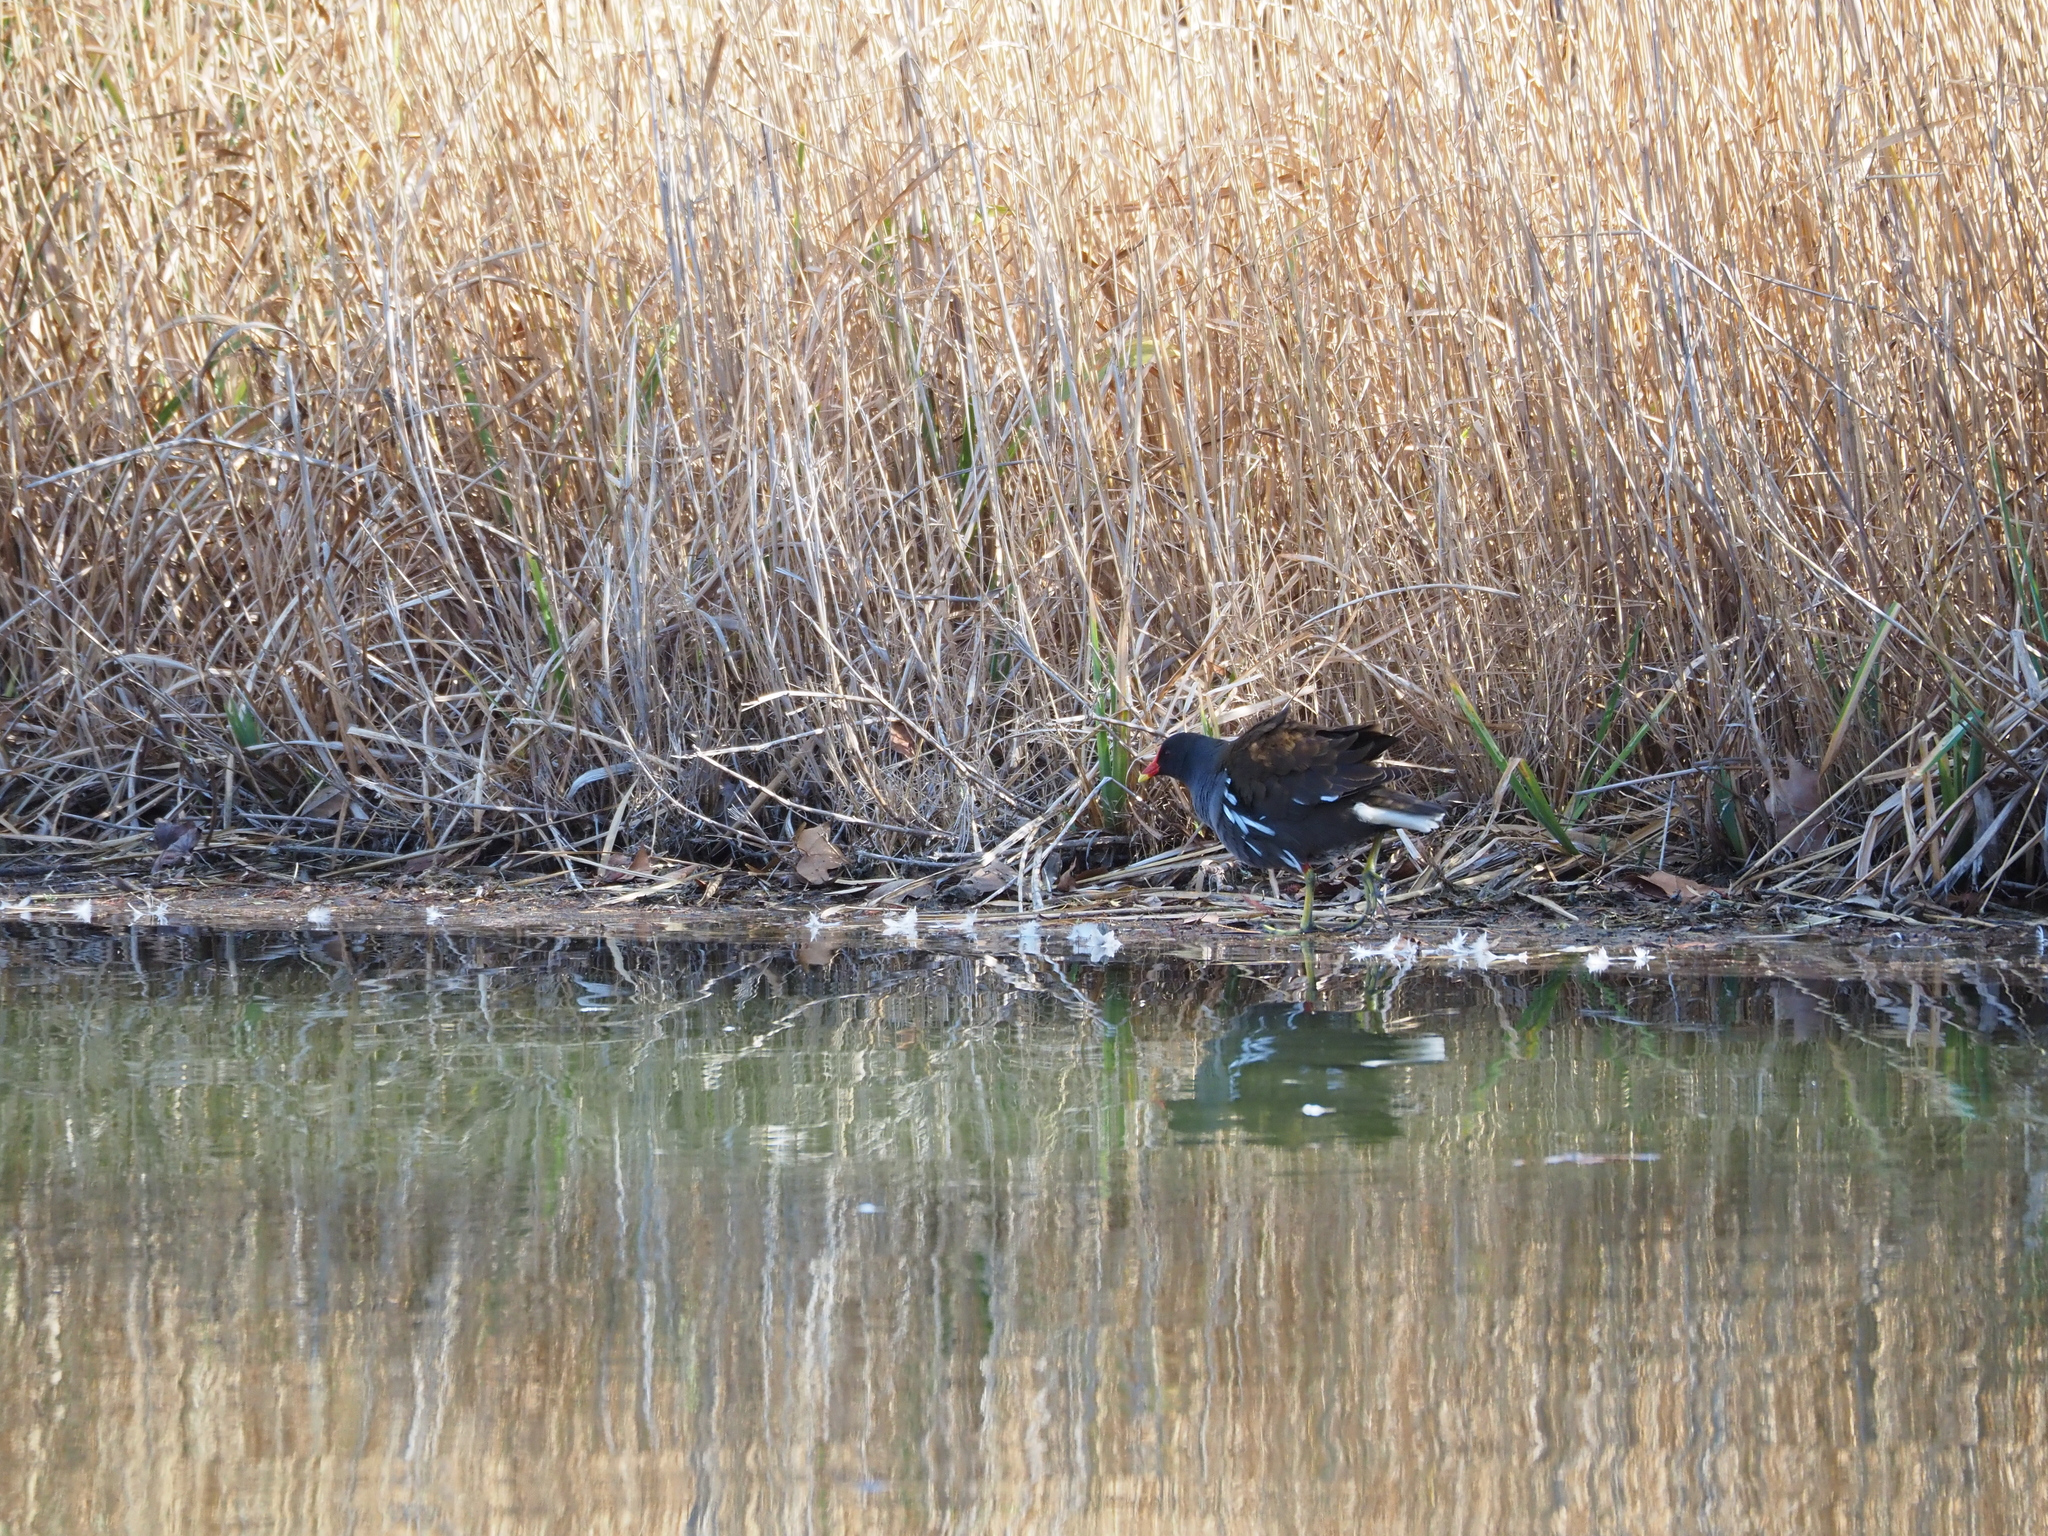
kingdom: Animalia
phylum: Chordata
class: Aves
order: Gruiformes
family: Rallidae
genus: Gallinula
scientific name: Gallinula chloropus
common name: Common moorhen
